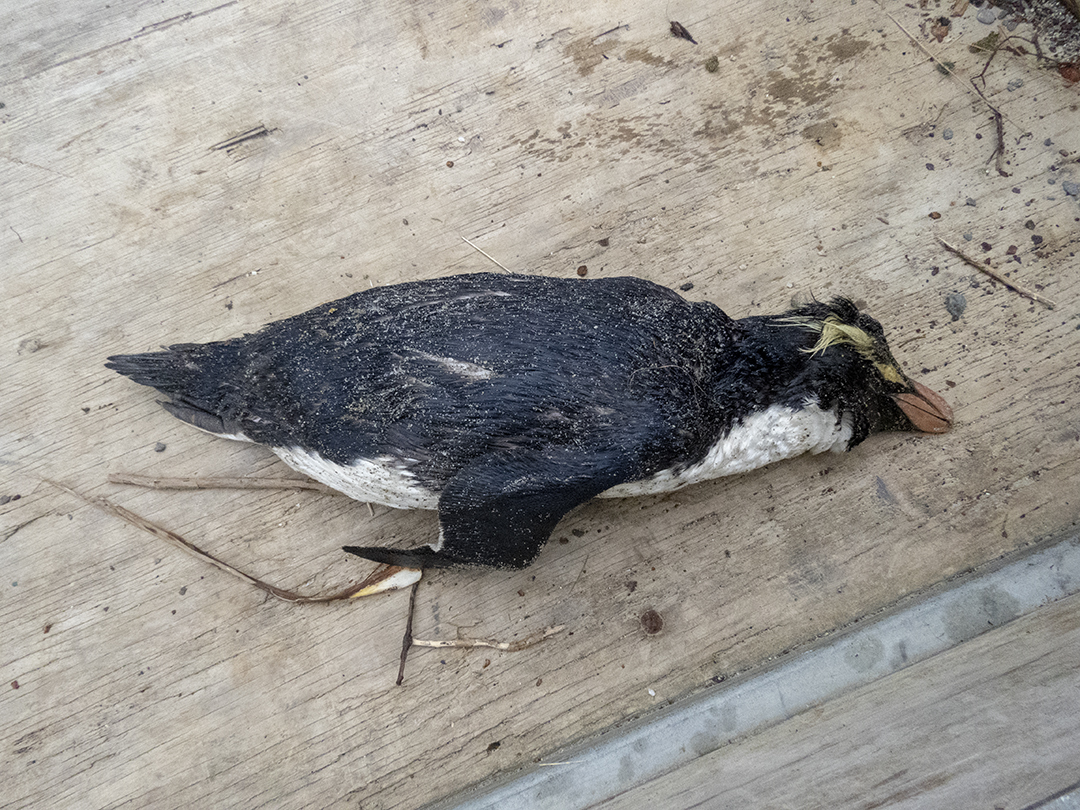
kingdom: Animalia
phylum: Chordata
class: Aves
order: Sphenisciformes
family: Spheniscidae
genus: Eudyptes
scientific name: Eudyptes pachyrhynchus
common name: Fiordland penguin
